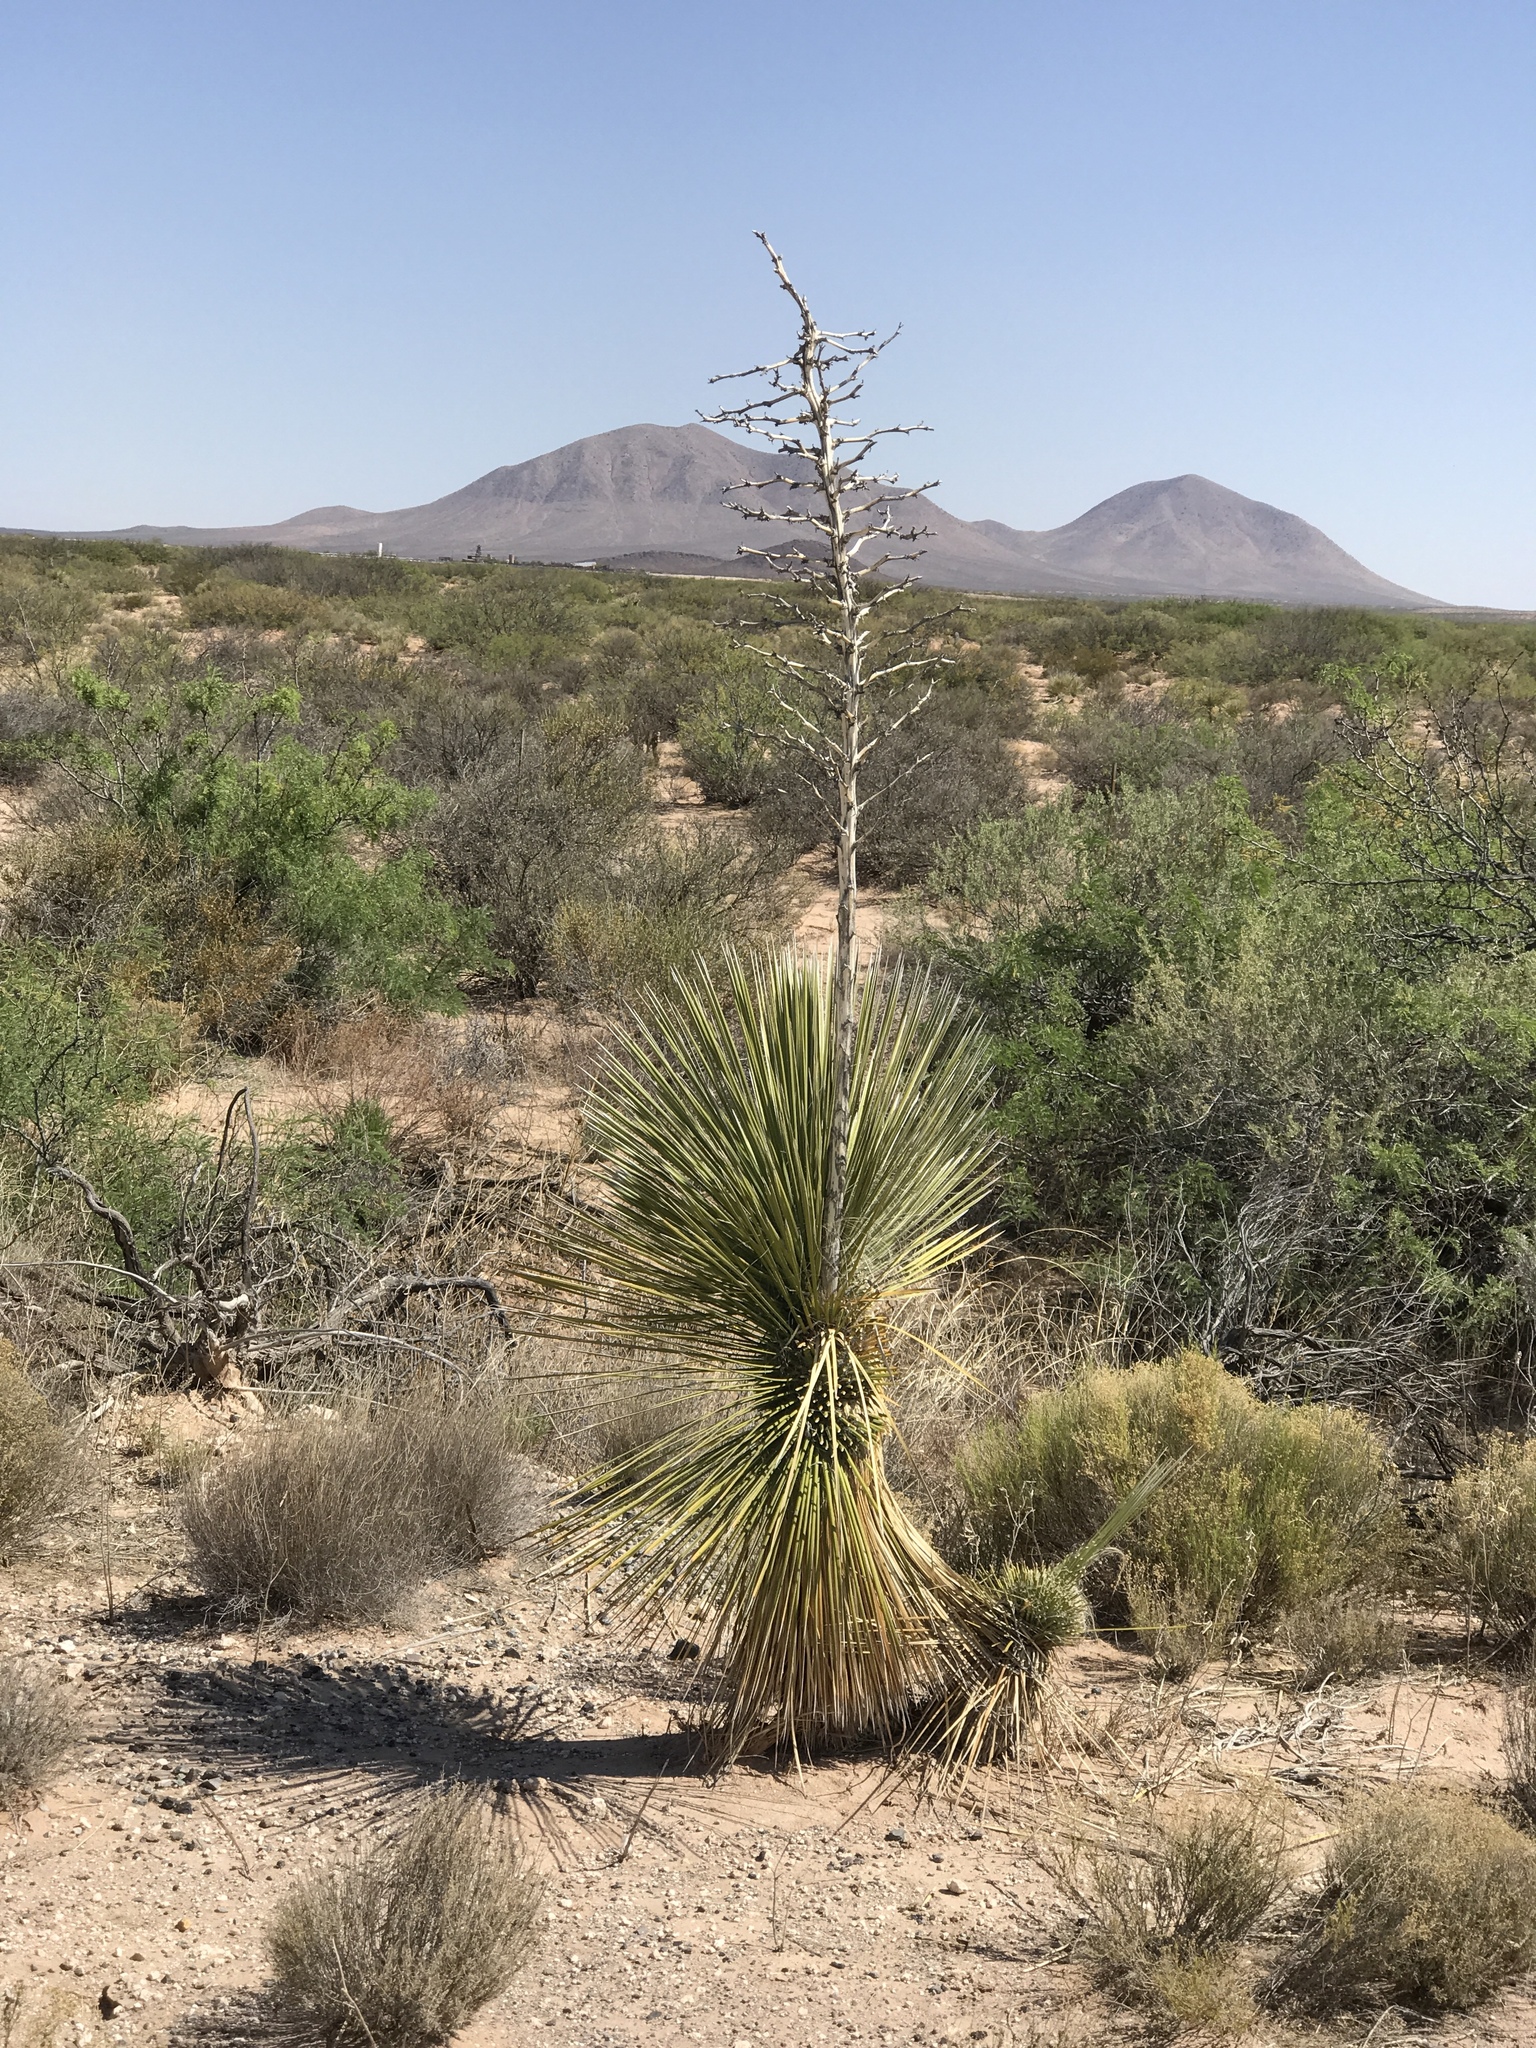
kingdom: Plantae
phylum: Tracheophyta
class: Liliopsida
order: Asparagales
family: Asparagaceae
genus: Yucca
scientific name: Yucca elata
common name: Palmella
